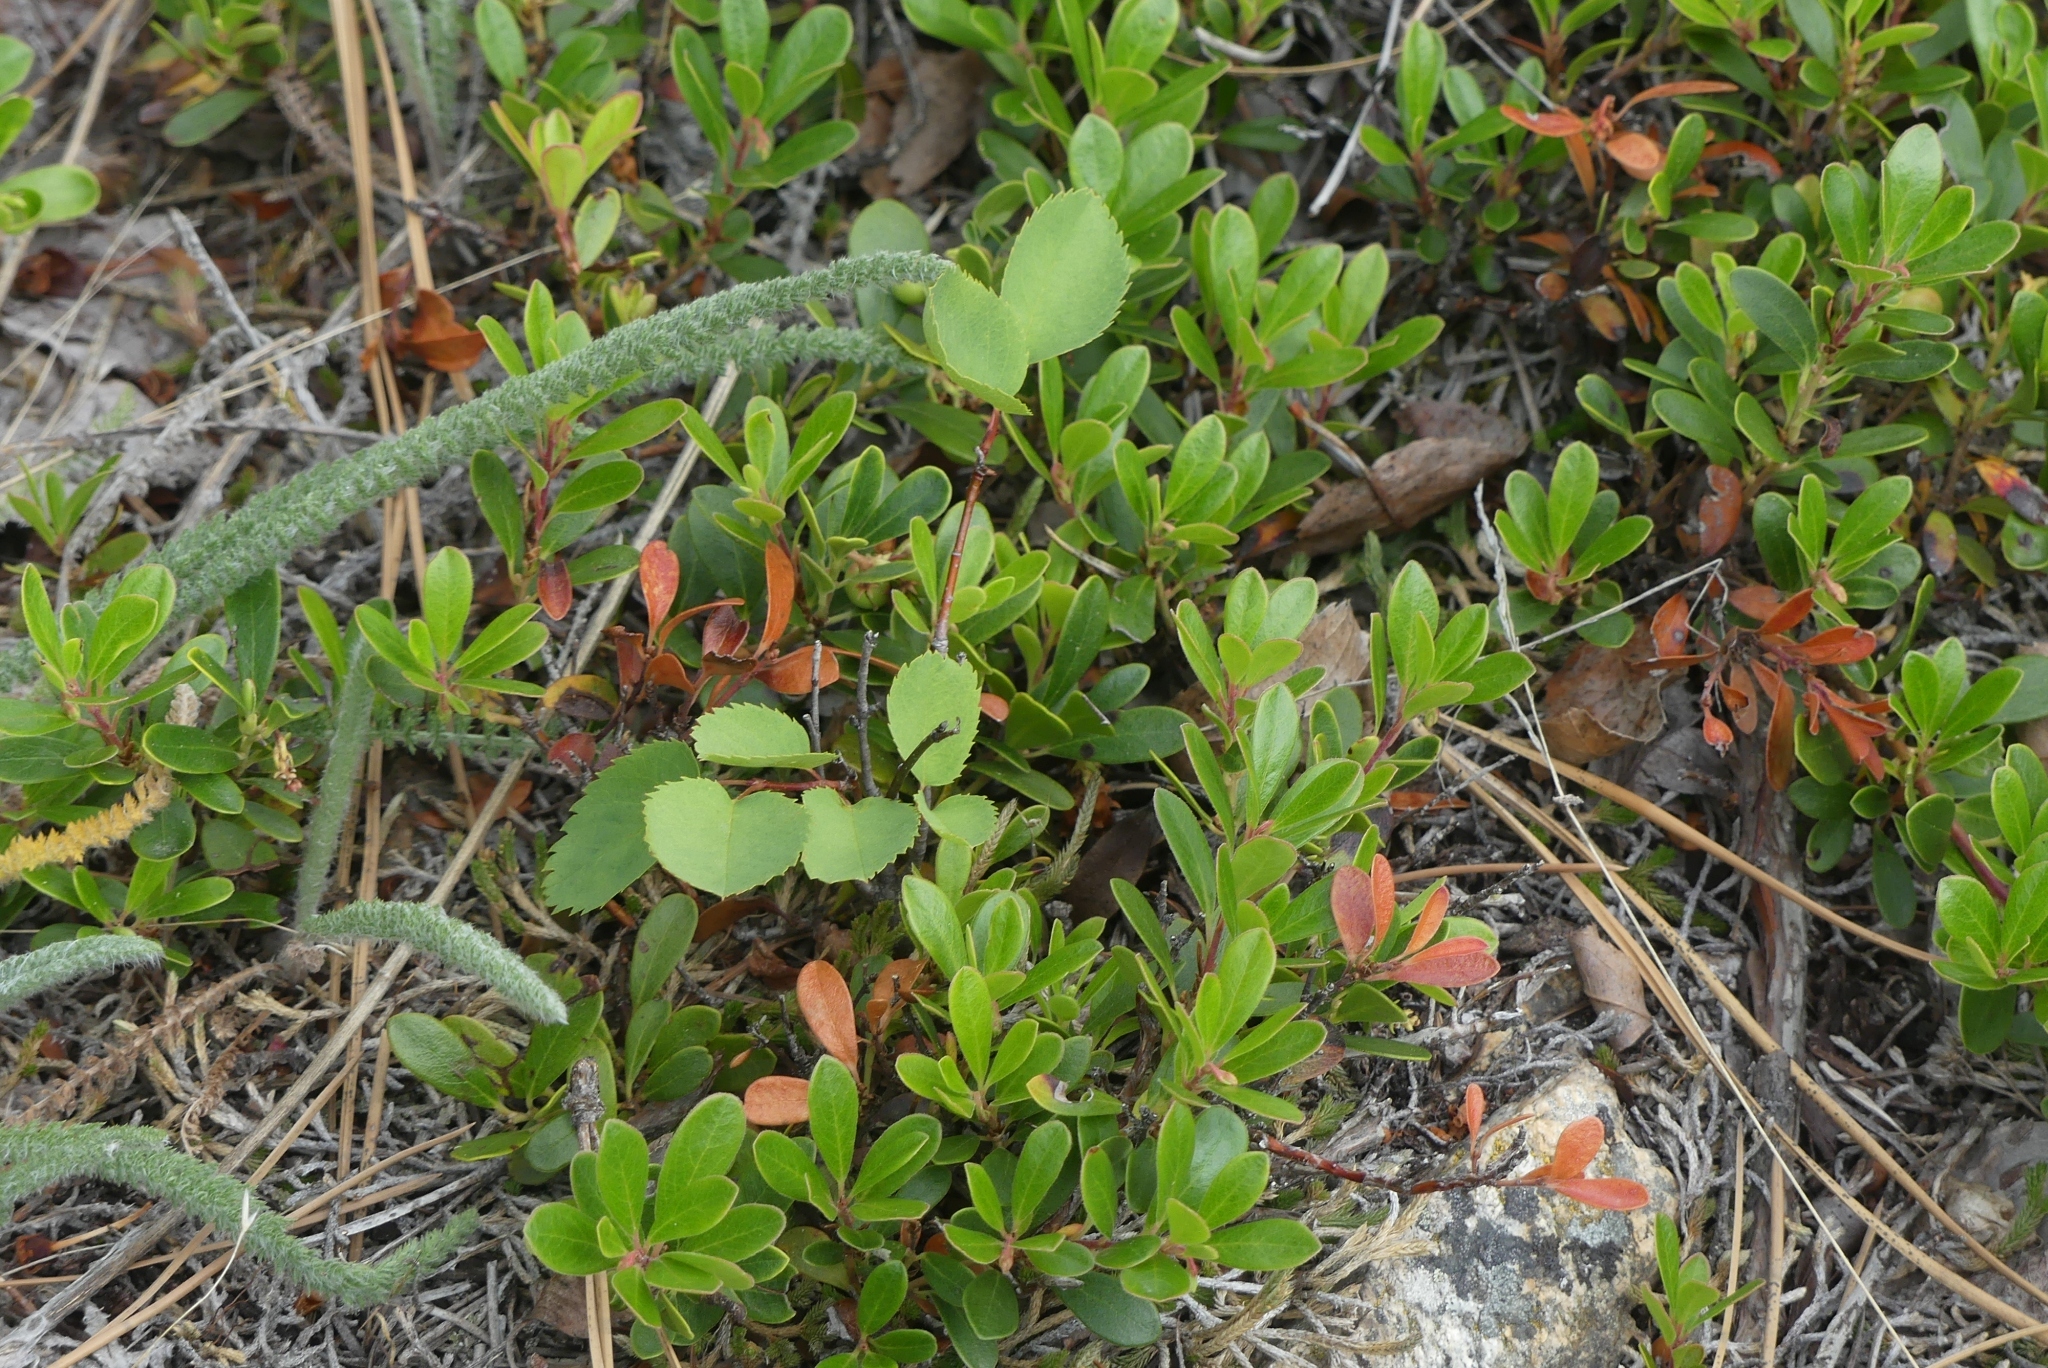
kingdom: Plantae
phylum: Tracheophyta
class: Magnoliopsida
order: Ericales
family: Ericaceae
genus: Arctostaphylos
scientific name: Arctostaphylos uva-ursi
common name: Bearberry
